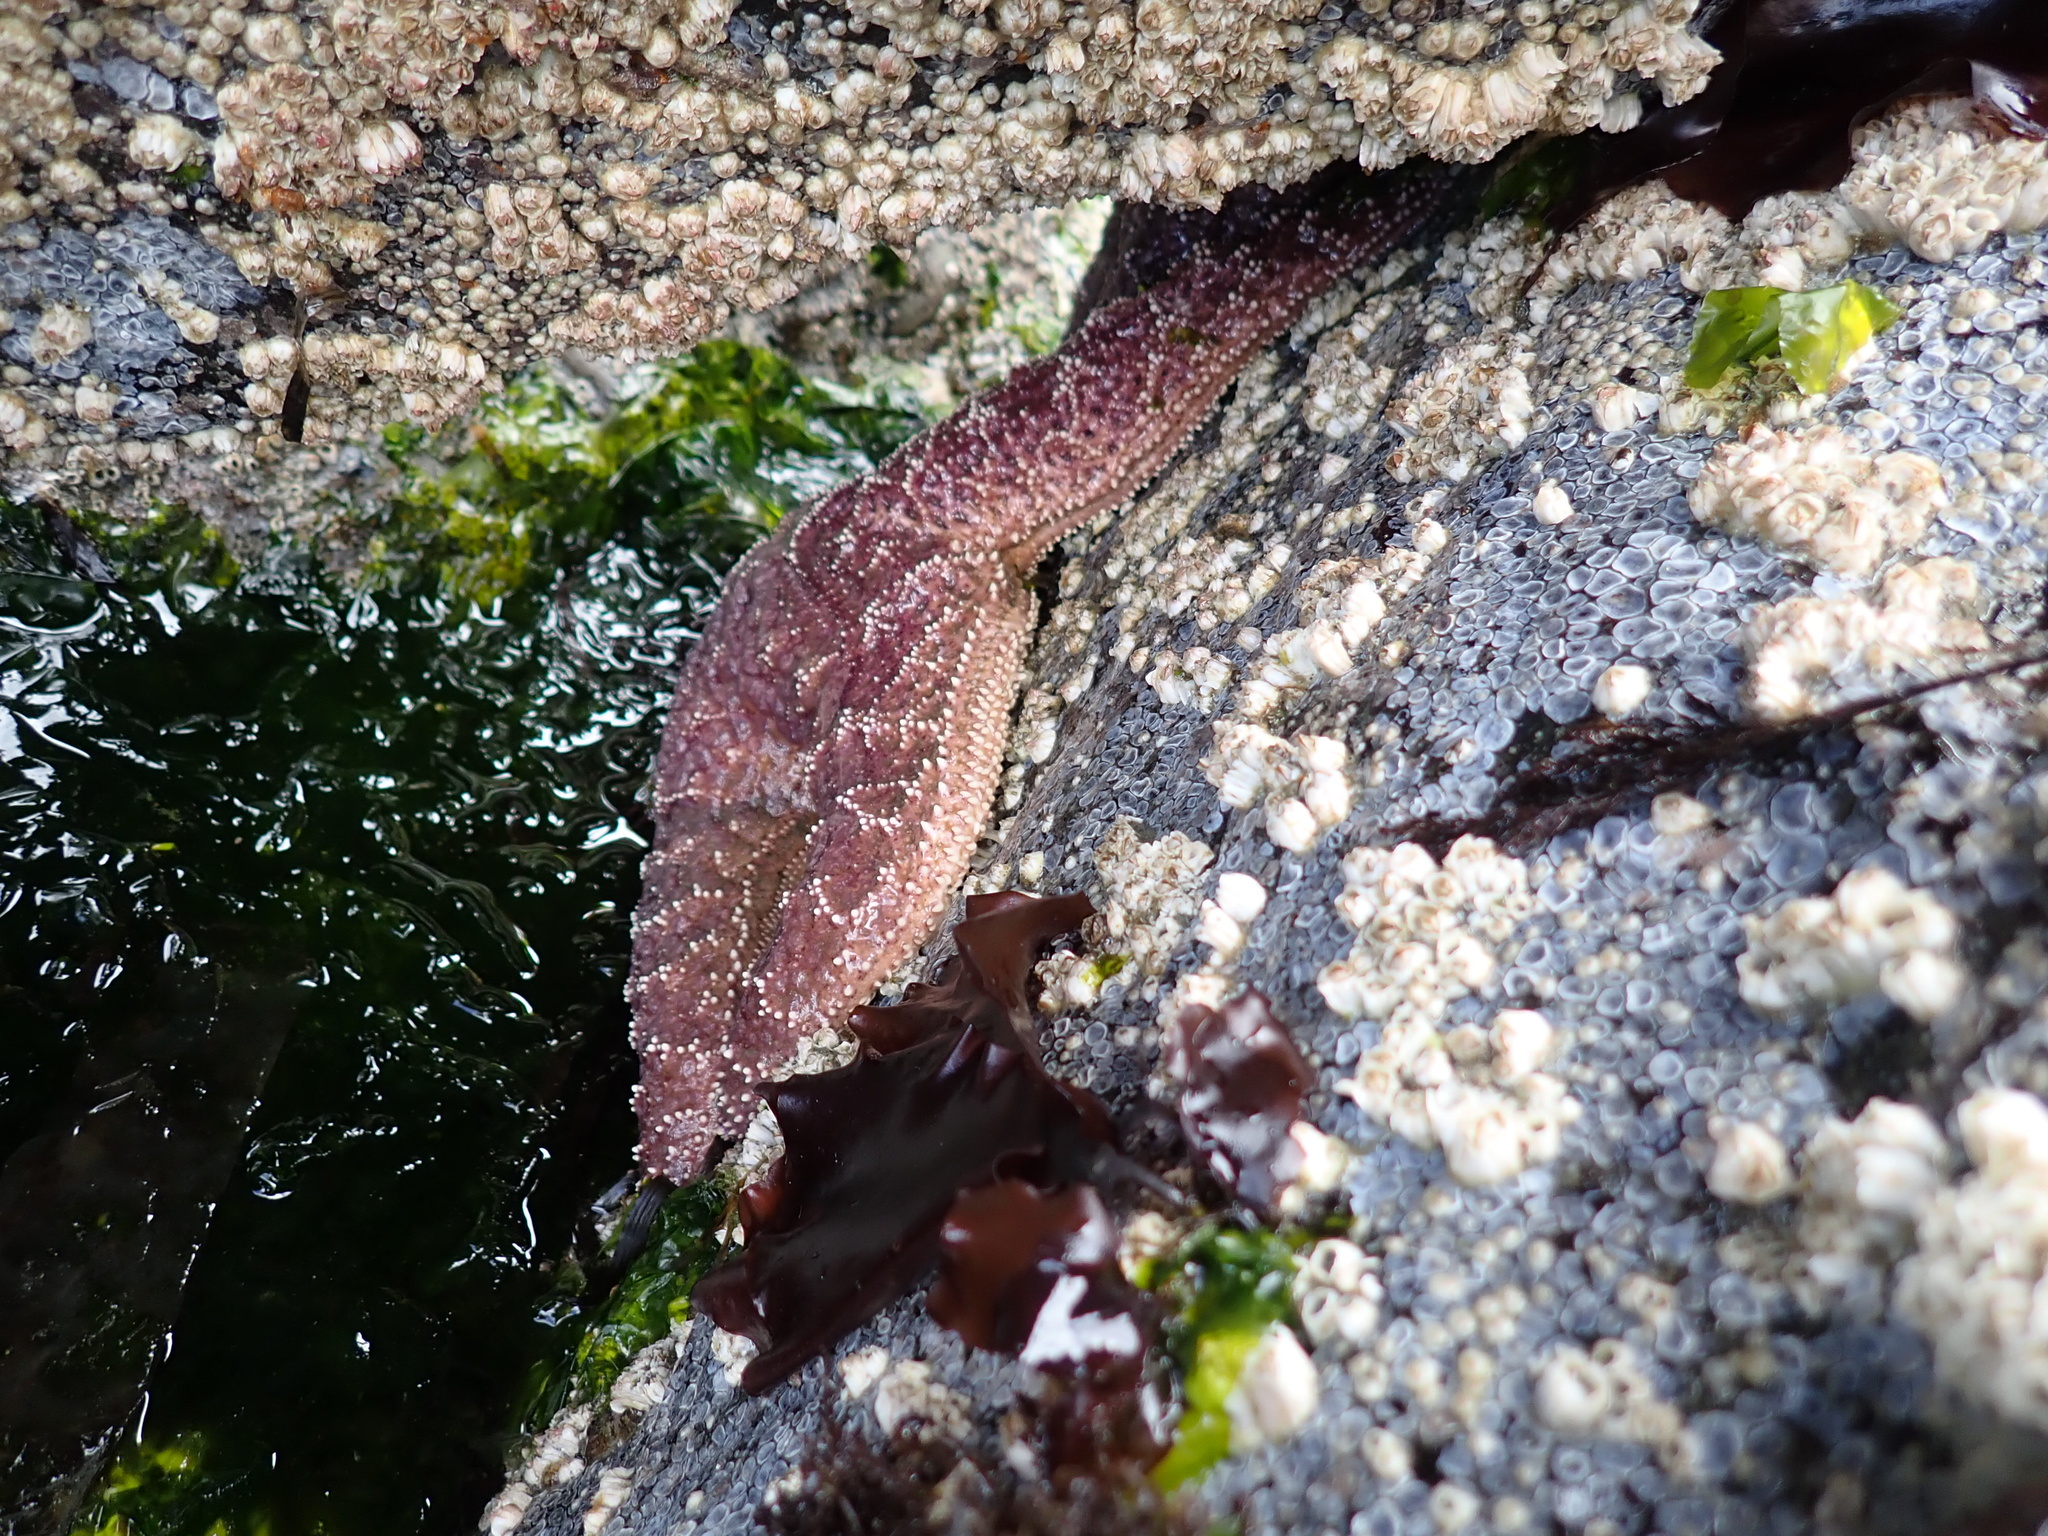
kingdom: Animalia
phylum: Echinodermata
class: Asteroidea
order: Forcipulatida
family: Asteriidae
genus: Pisaster
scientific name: Pisaster ochraceus
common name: Ochre stars
